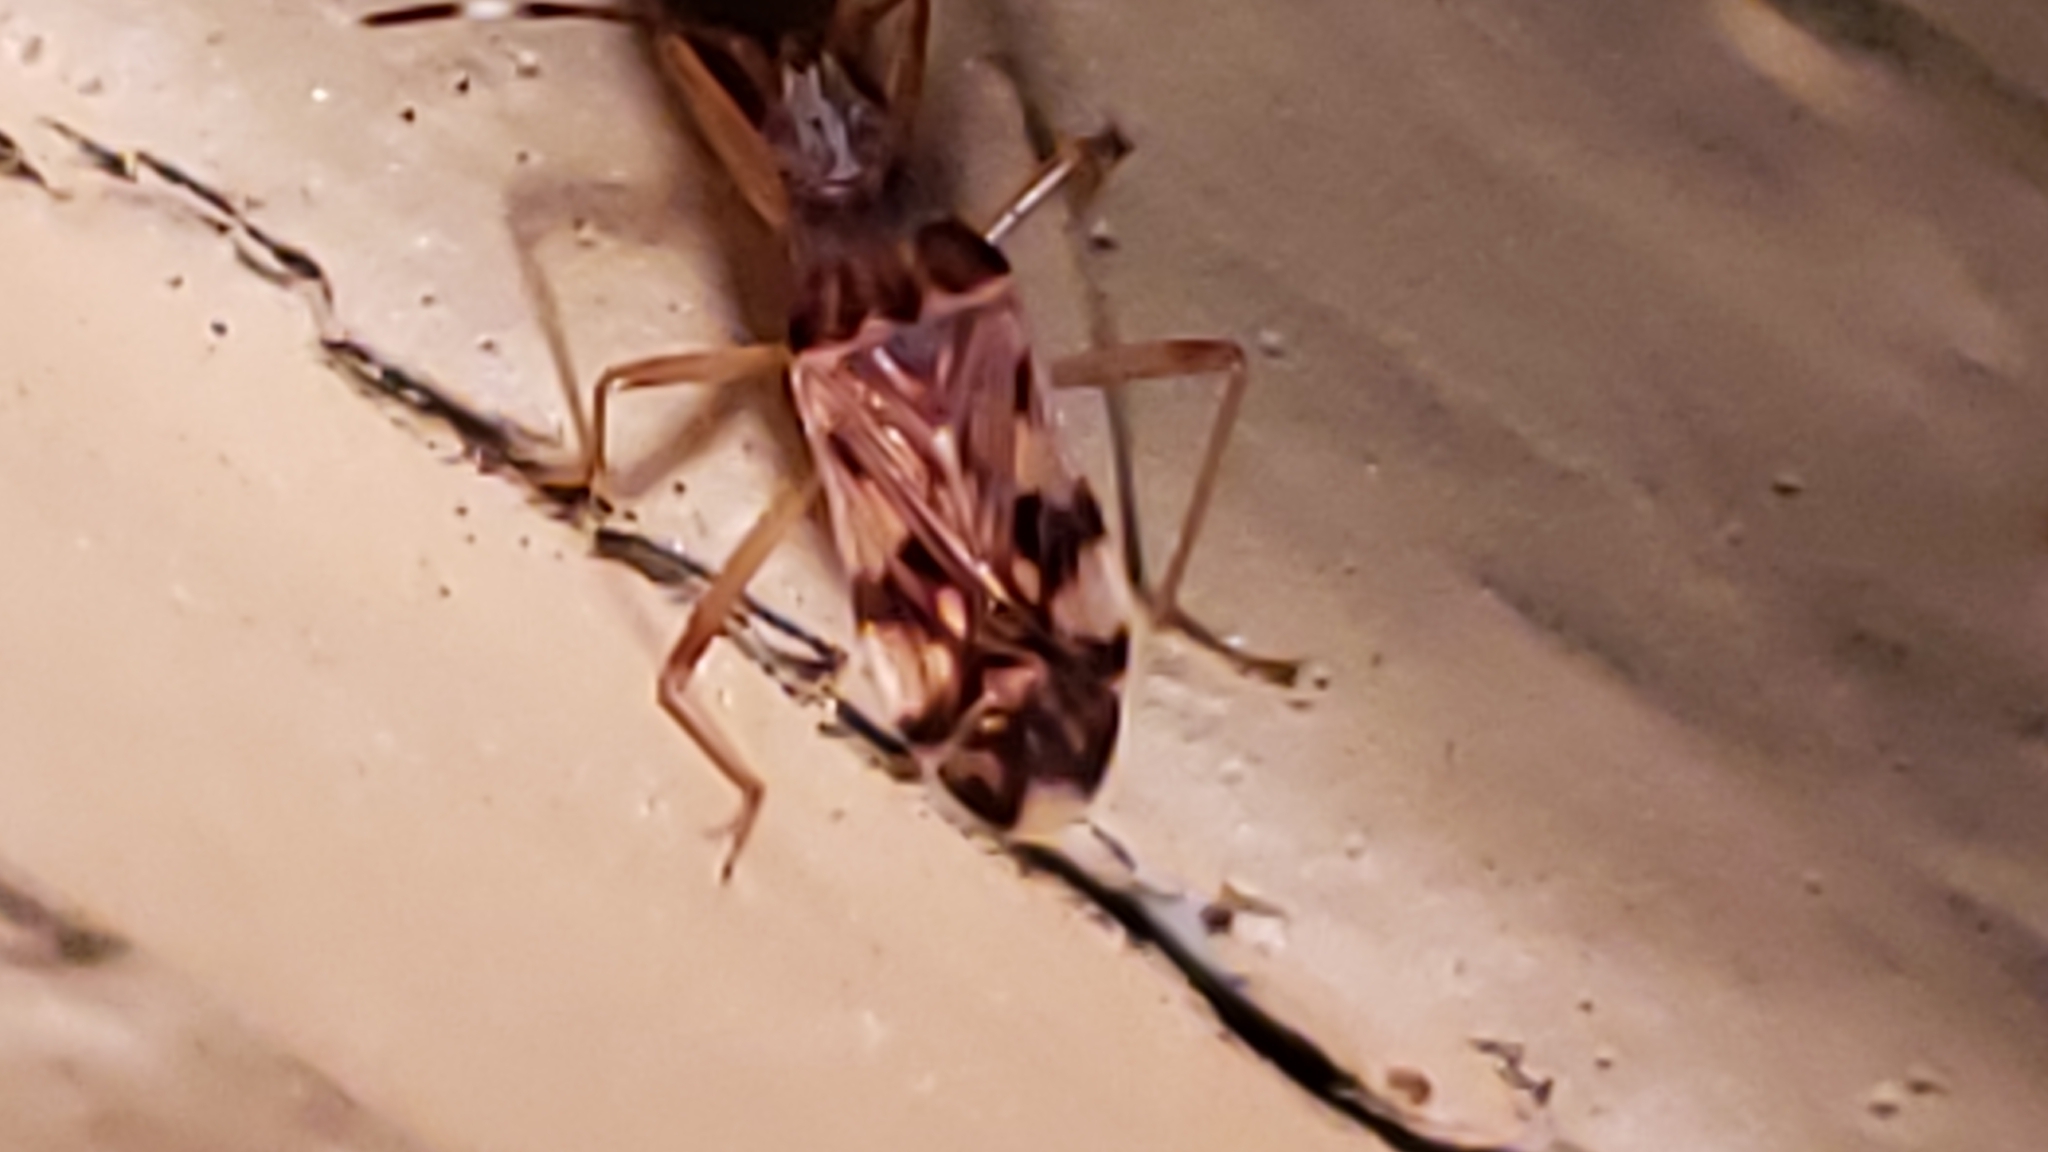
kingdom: Animalia
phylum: Arthropoda
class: Insecta
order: Hemiptera
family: Rhyparochromidae
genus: Ozophora
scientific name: Ozophora picturata
